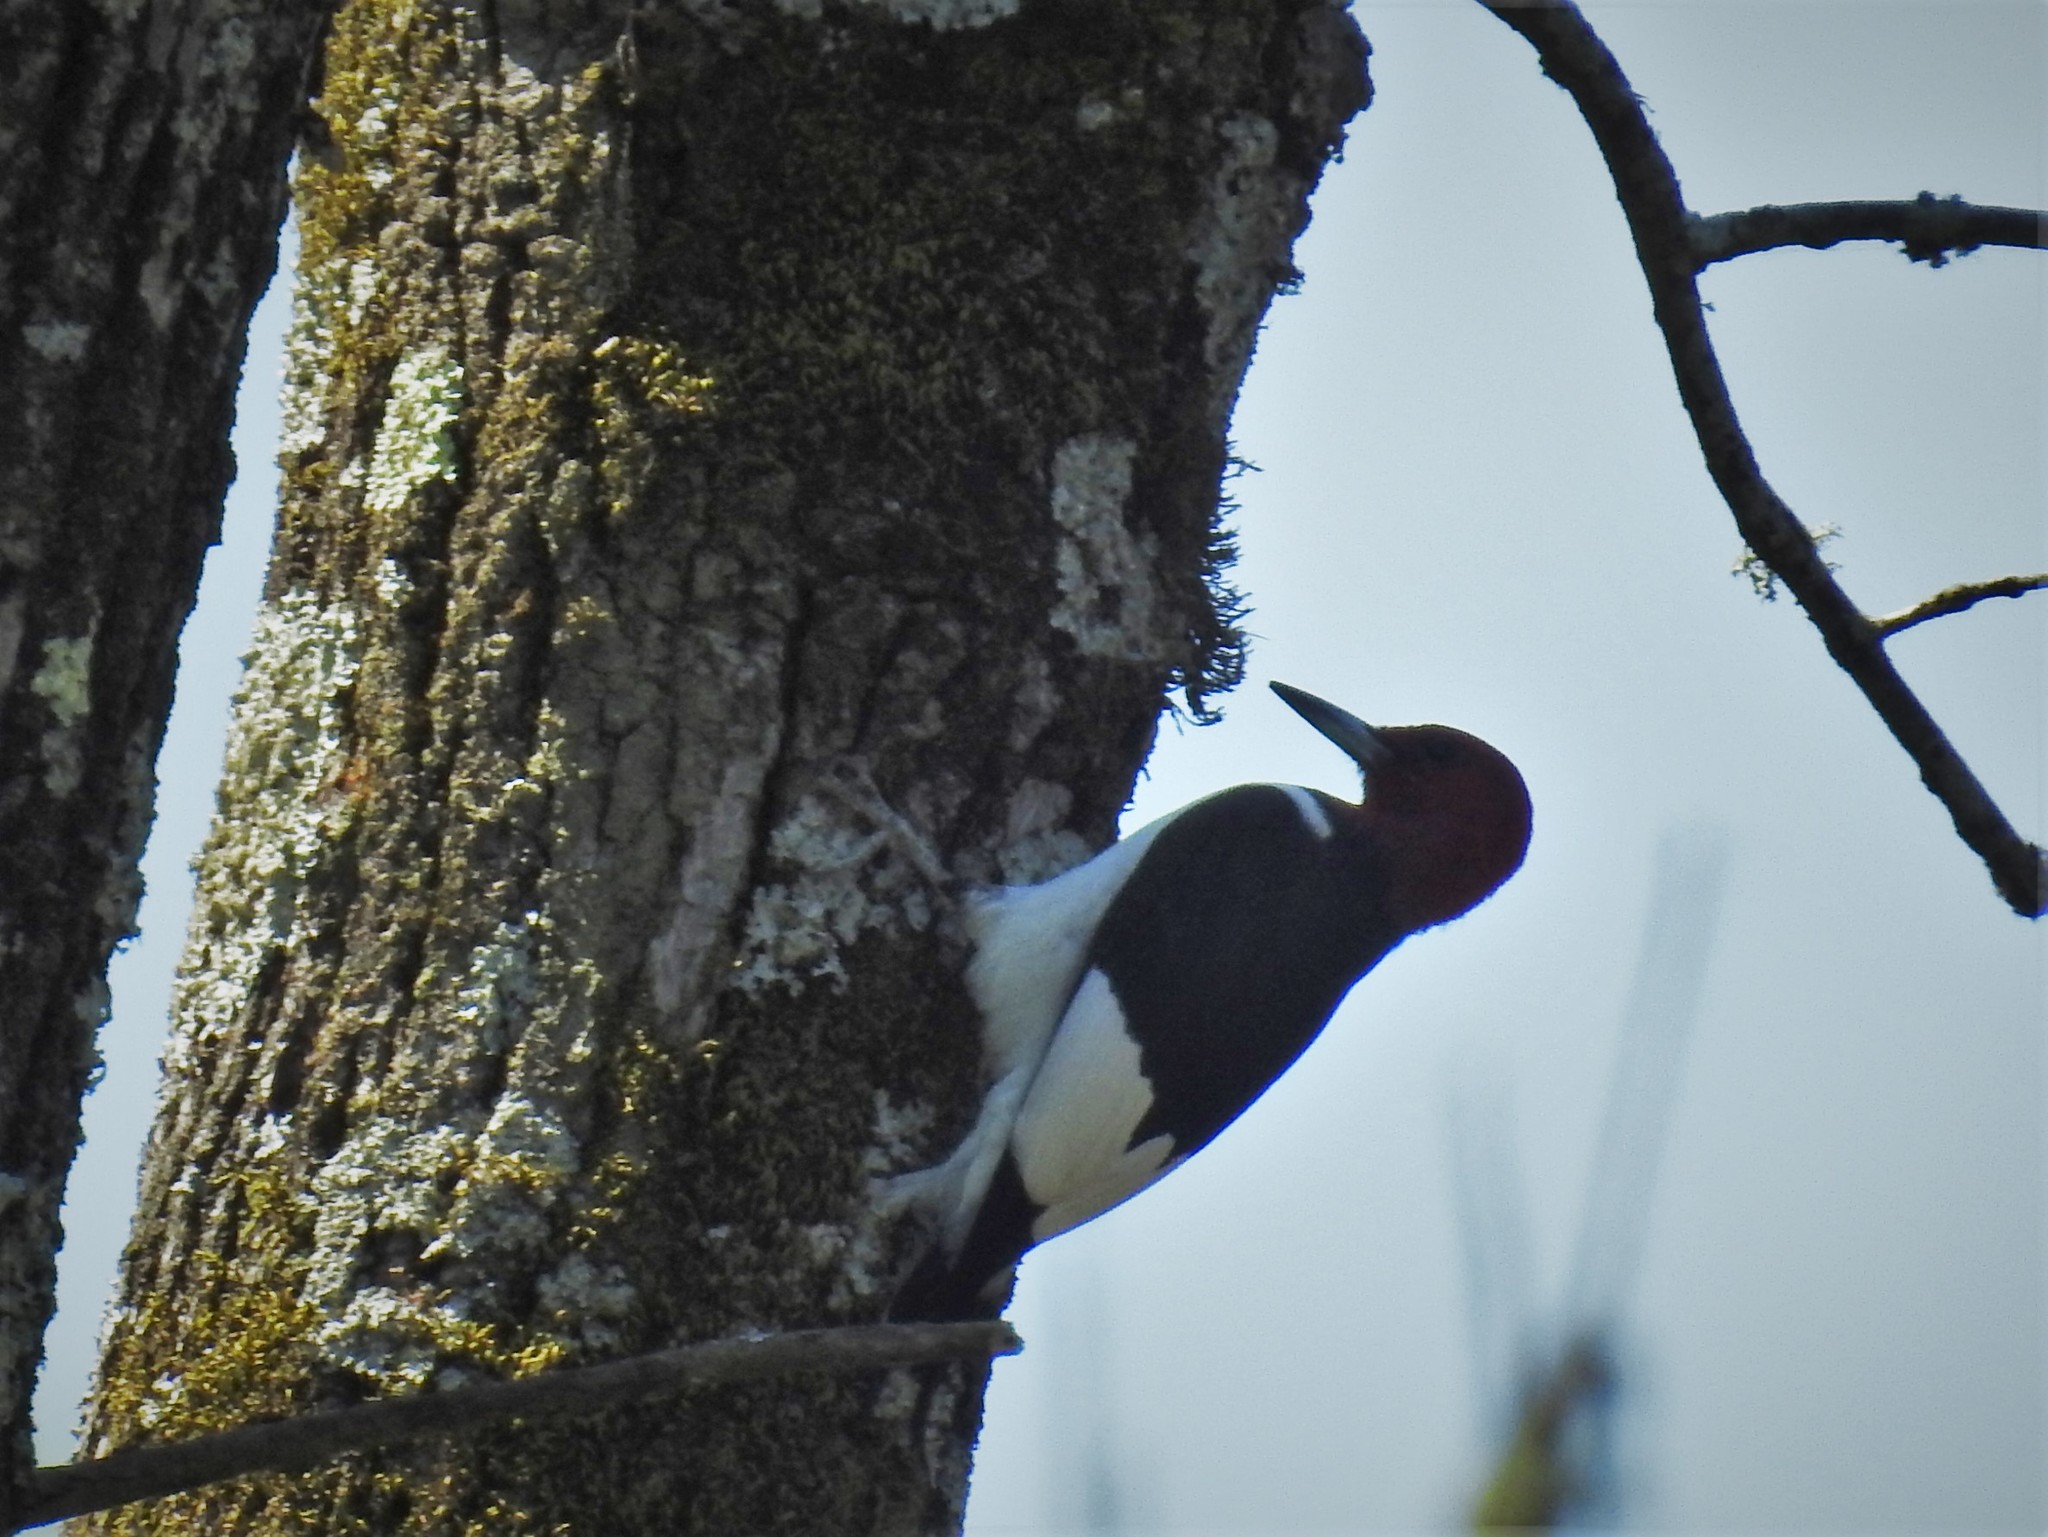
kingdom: Animalia
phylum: Chordata
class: Aves
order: Piciformes
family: Picidae
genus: Melanerpes
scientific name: Melanerpes erythrocephalus
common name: Red-headed woodpecker
